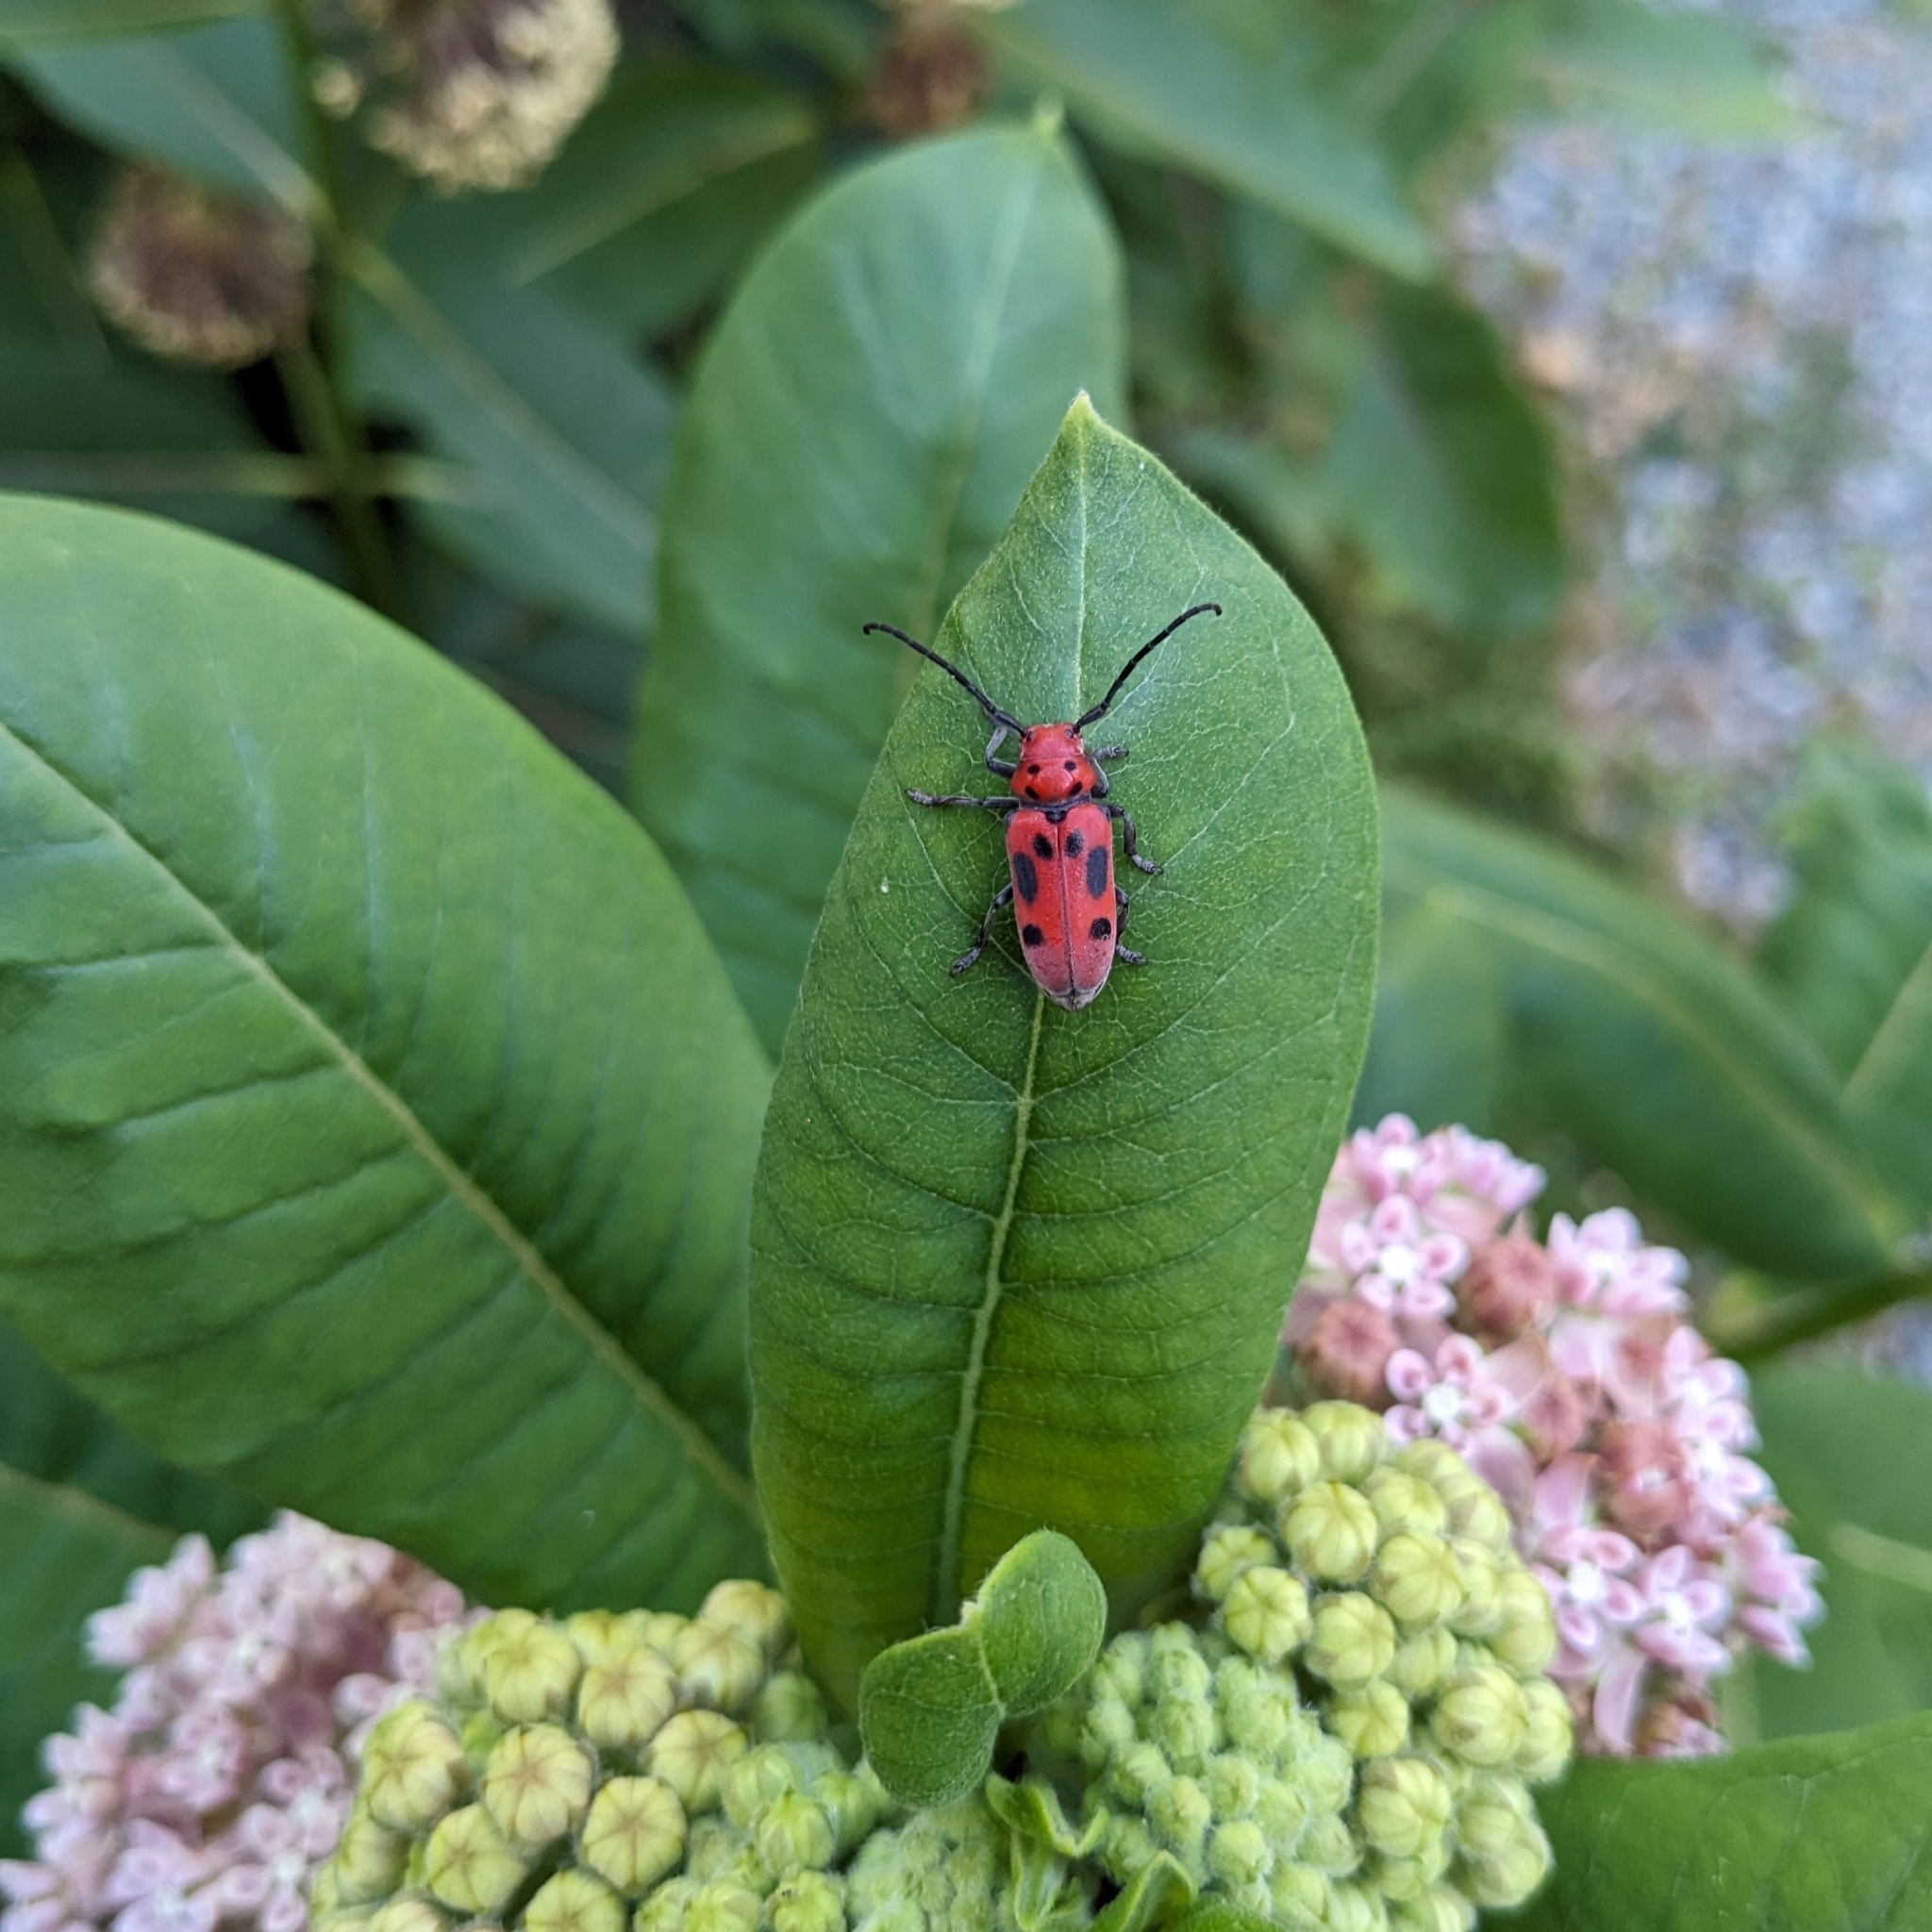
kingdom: Animalia
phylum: Arthropoda
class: Insecta
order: Coleoptera
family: Cerambycidae
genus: Tetraopes
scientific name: Tetraopes tetrophthalmus
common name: Red milkweed beetle
